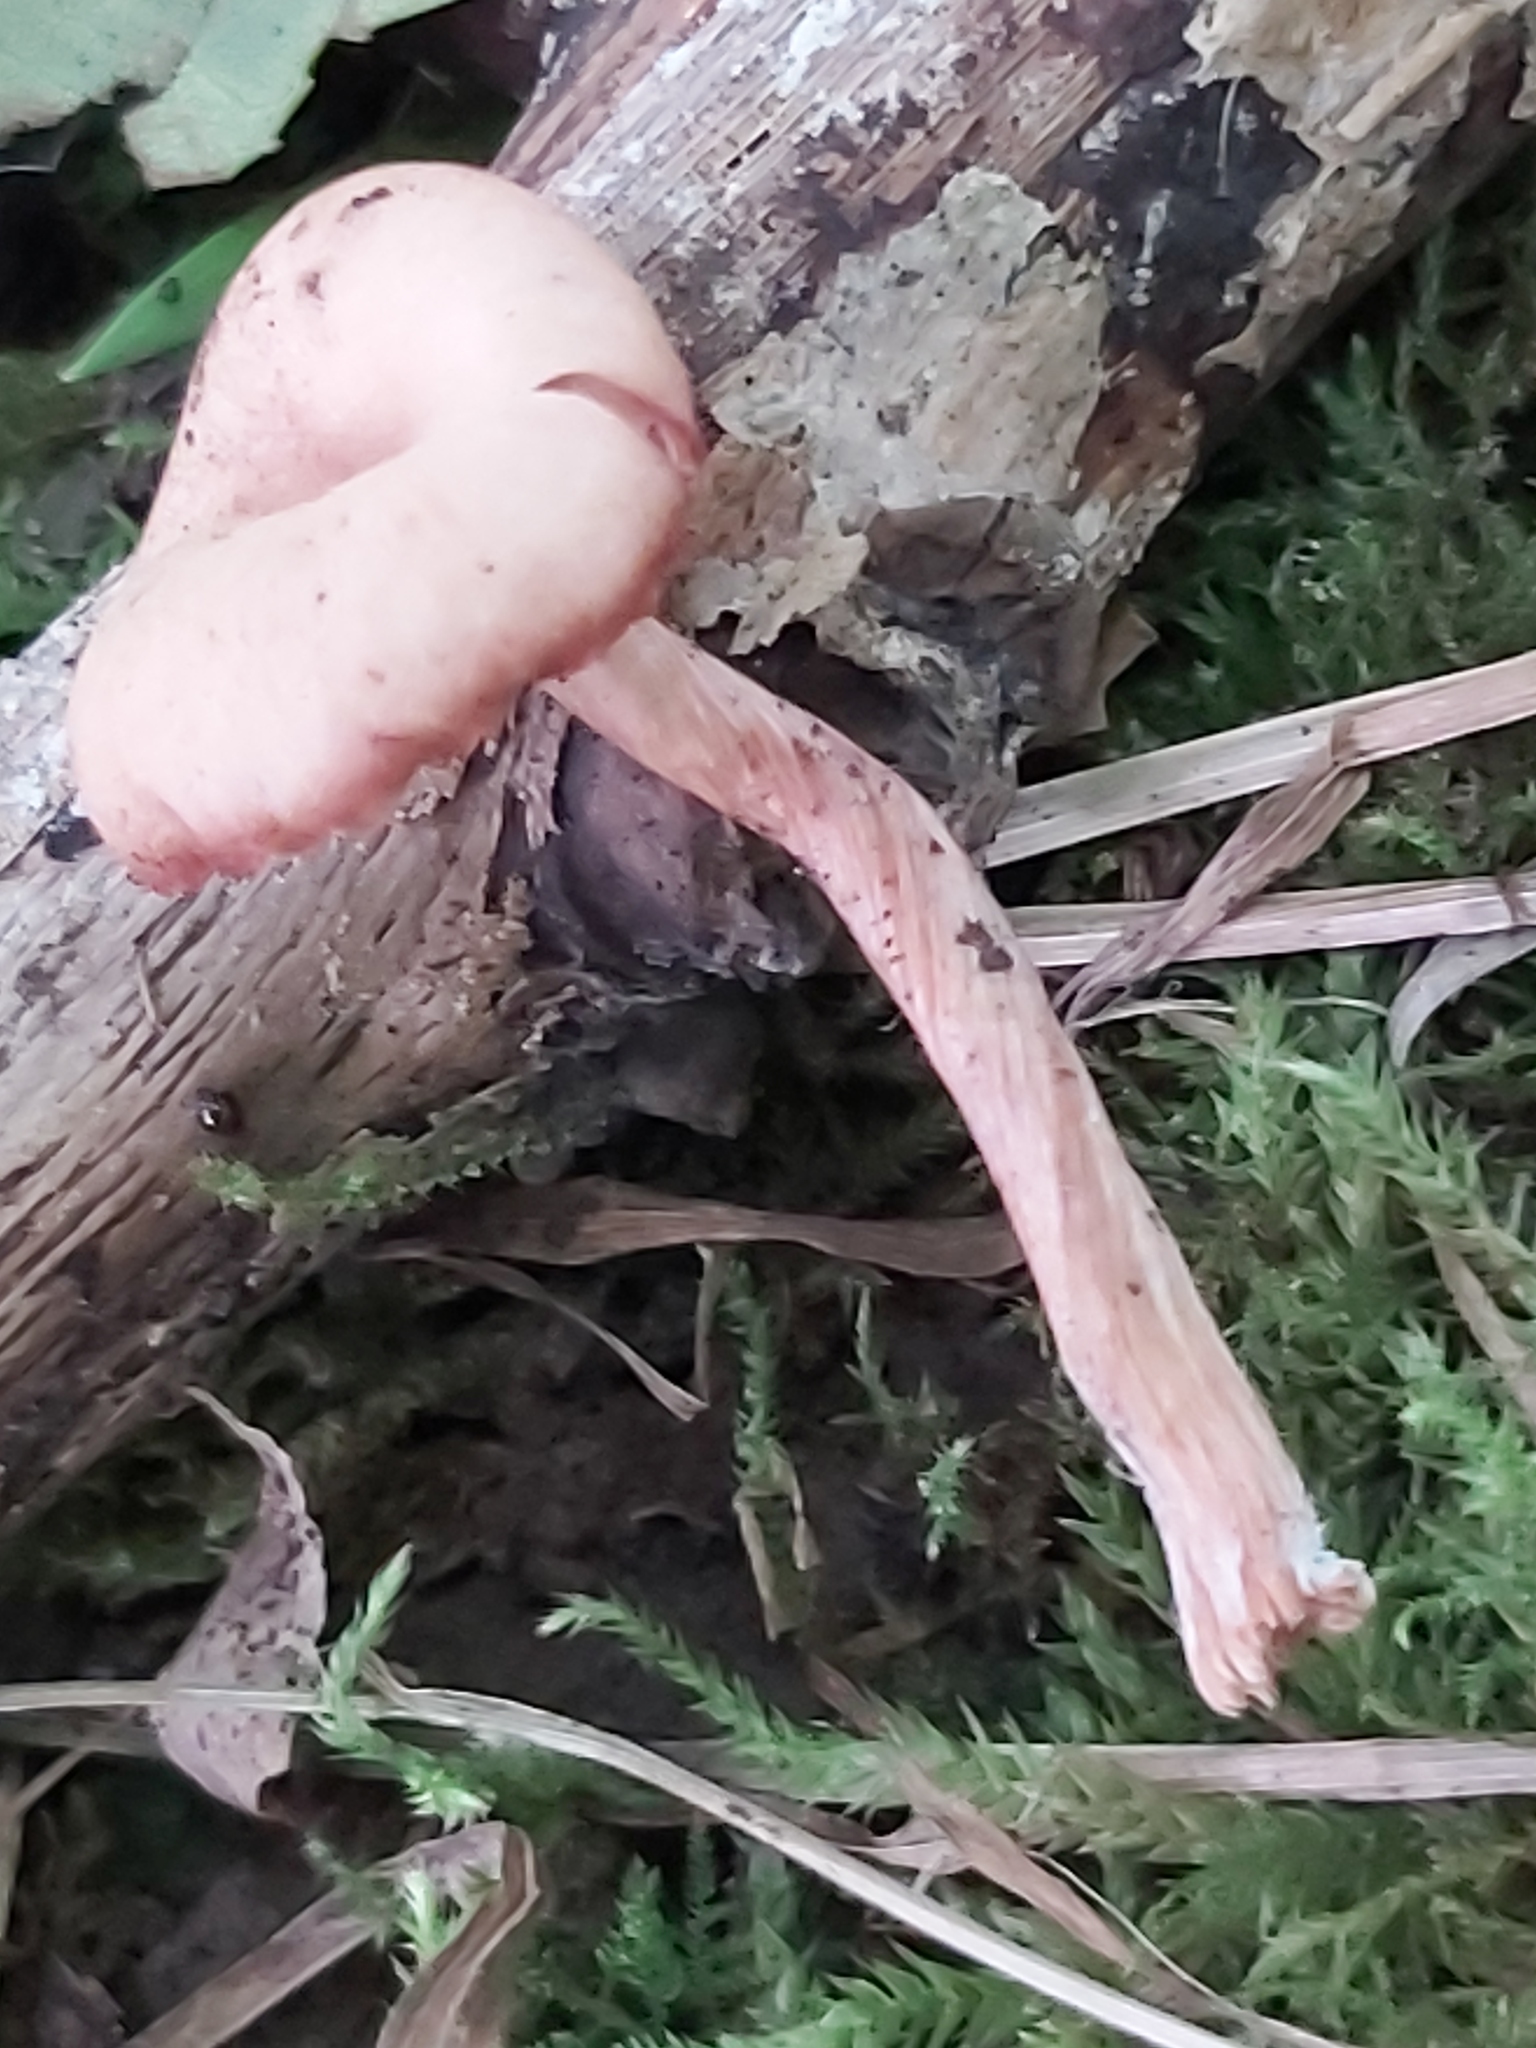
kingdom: Fungi
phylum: Basidiomycota
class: Agaricomycetes
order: Agaricales
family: Hydnangiaceae
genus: Laccaria
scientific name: Laccaria laccata
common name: Deceiver
